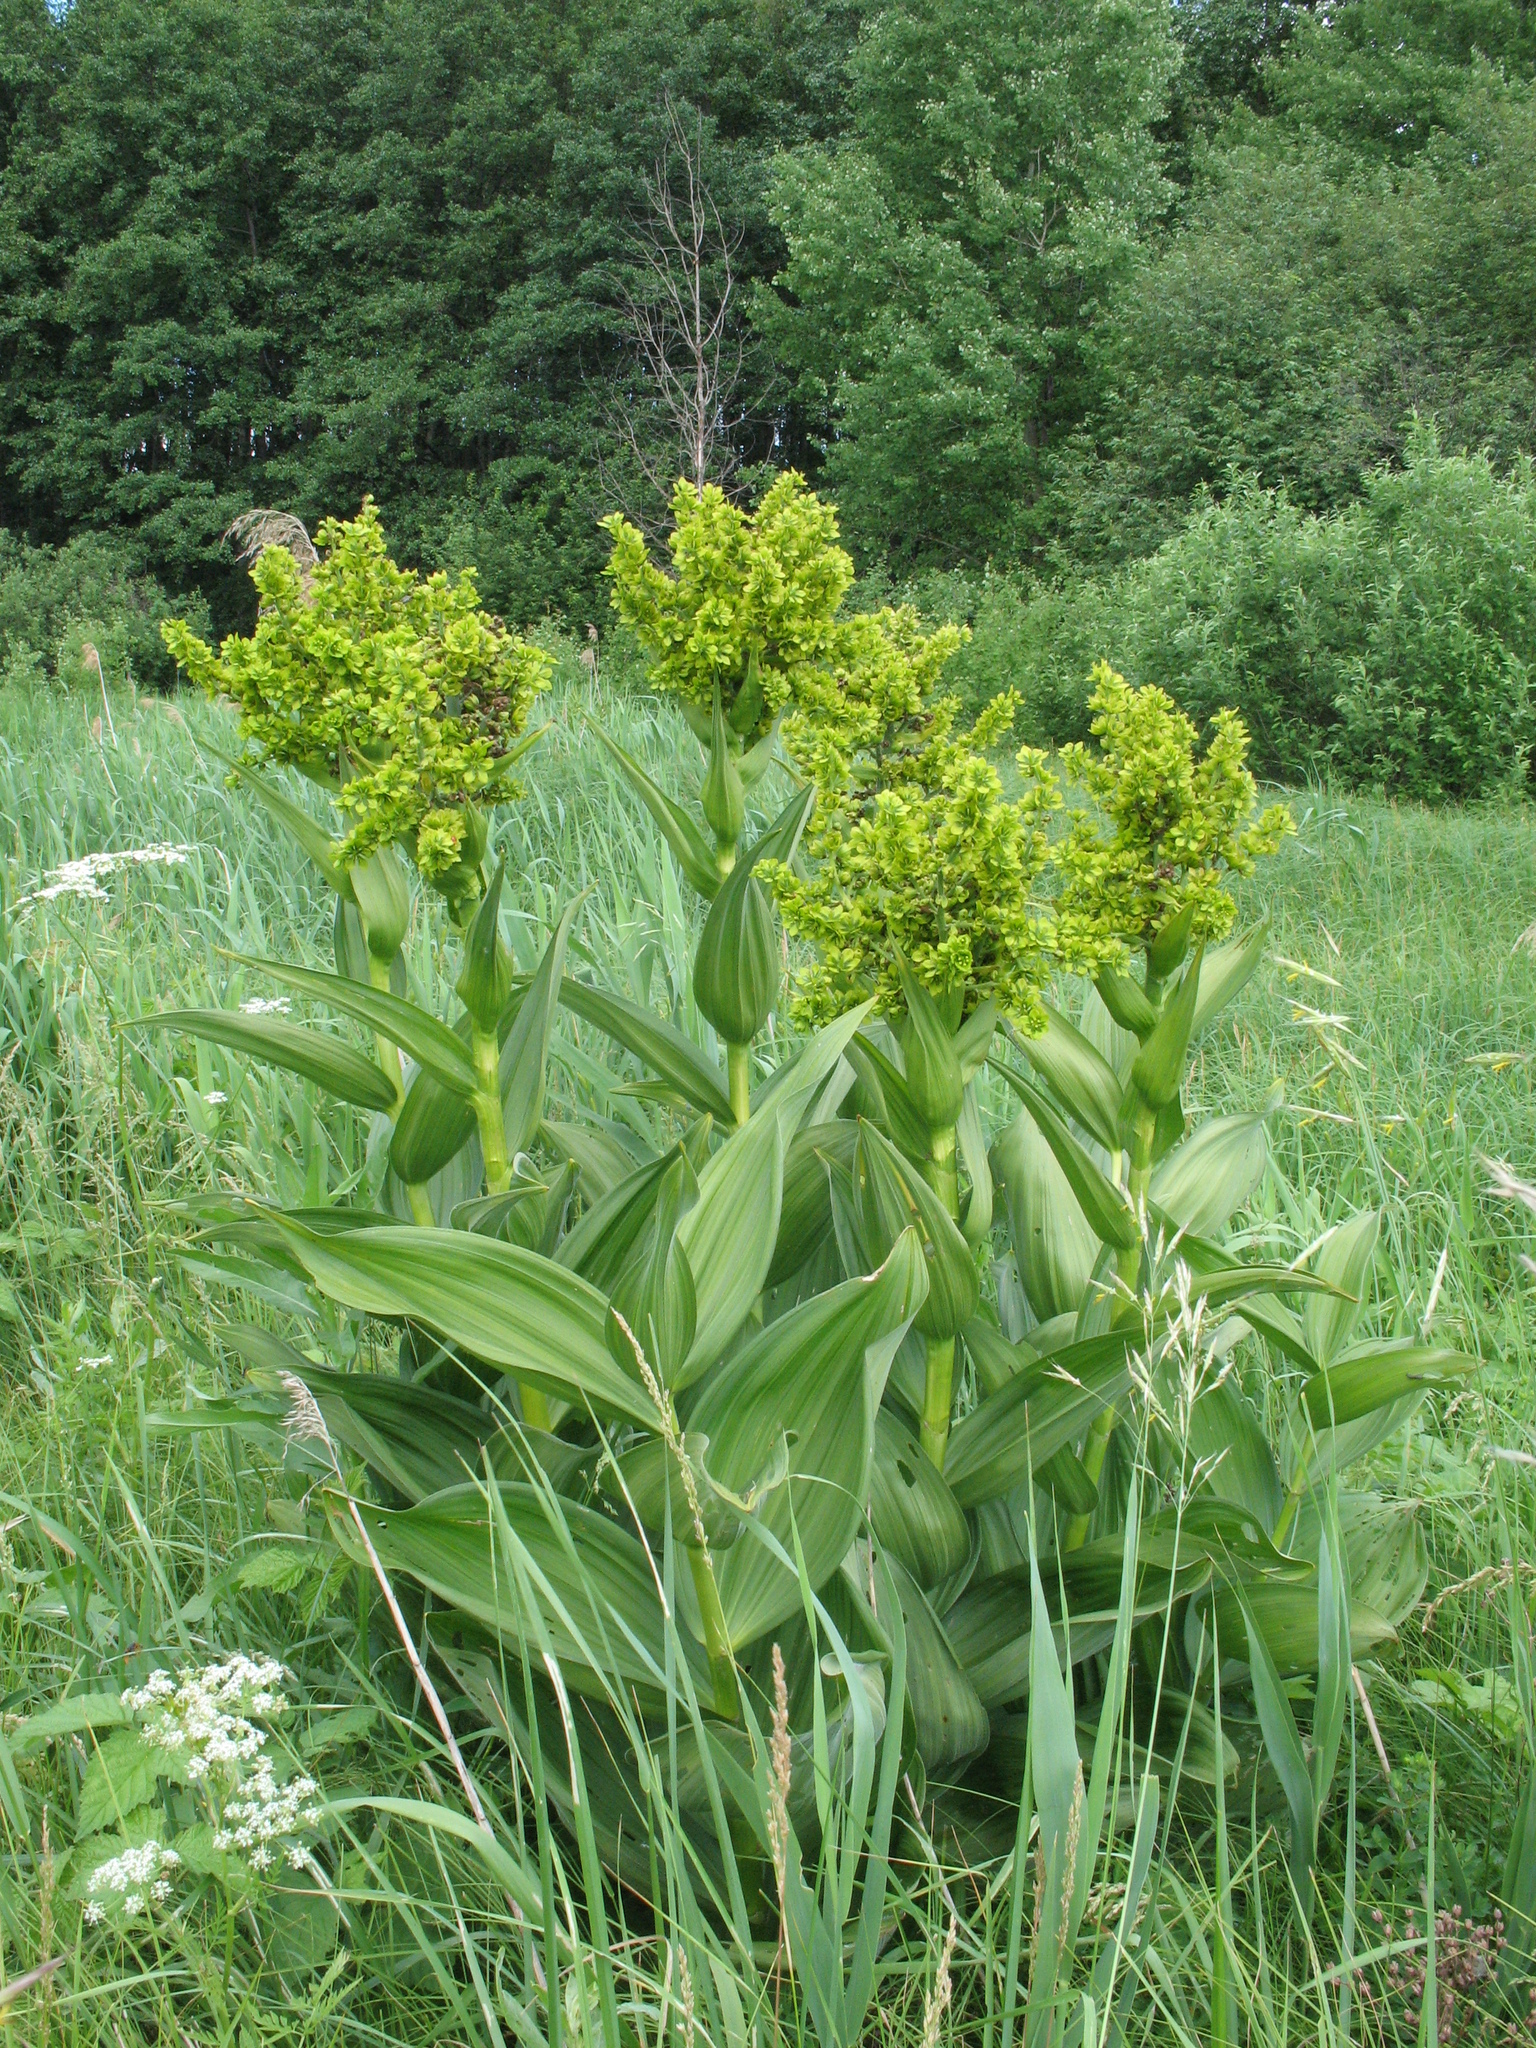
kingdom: Plantae
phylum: Tracheophyta
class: Liliopsida
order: Liliales
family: Melanthiaceae
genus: Veratrum
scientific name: Veratrum lobelianum
